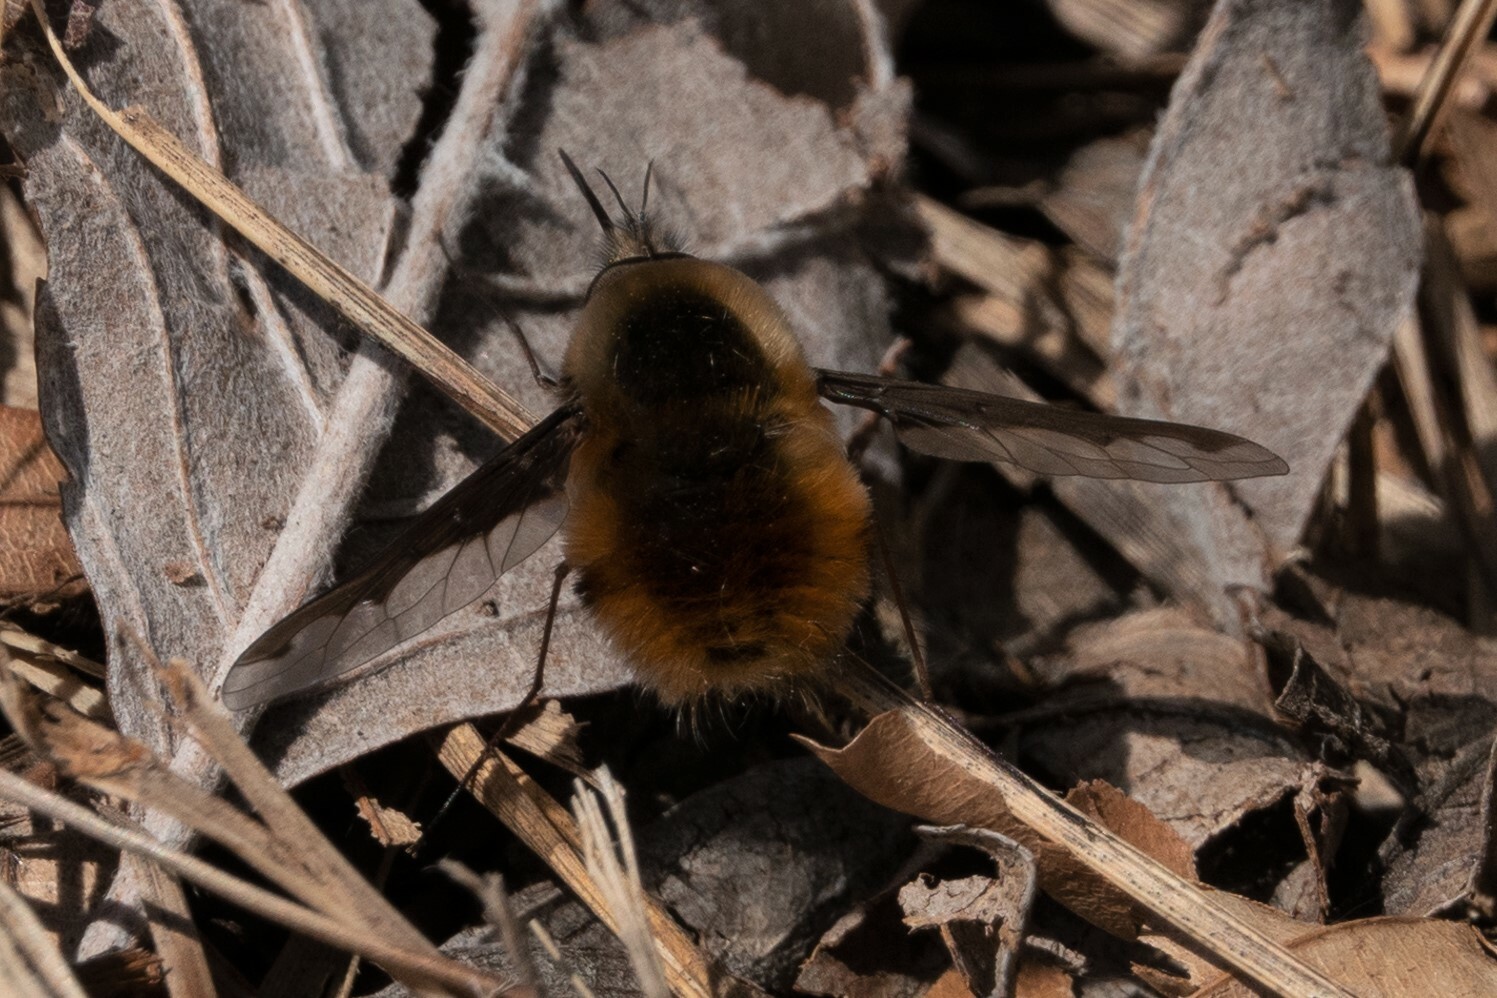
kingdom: Animalia
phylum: Arthropoda
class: Insecta
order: Diptera
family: Bombyliidae
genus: Bombylius
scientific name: Bombylius major
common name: Bee fly
